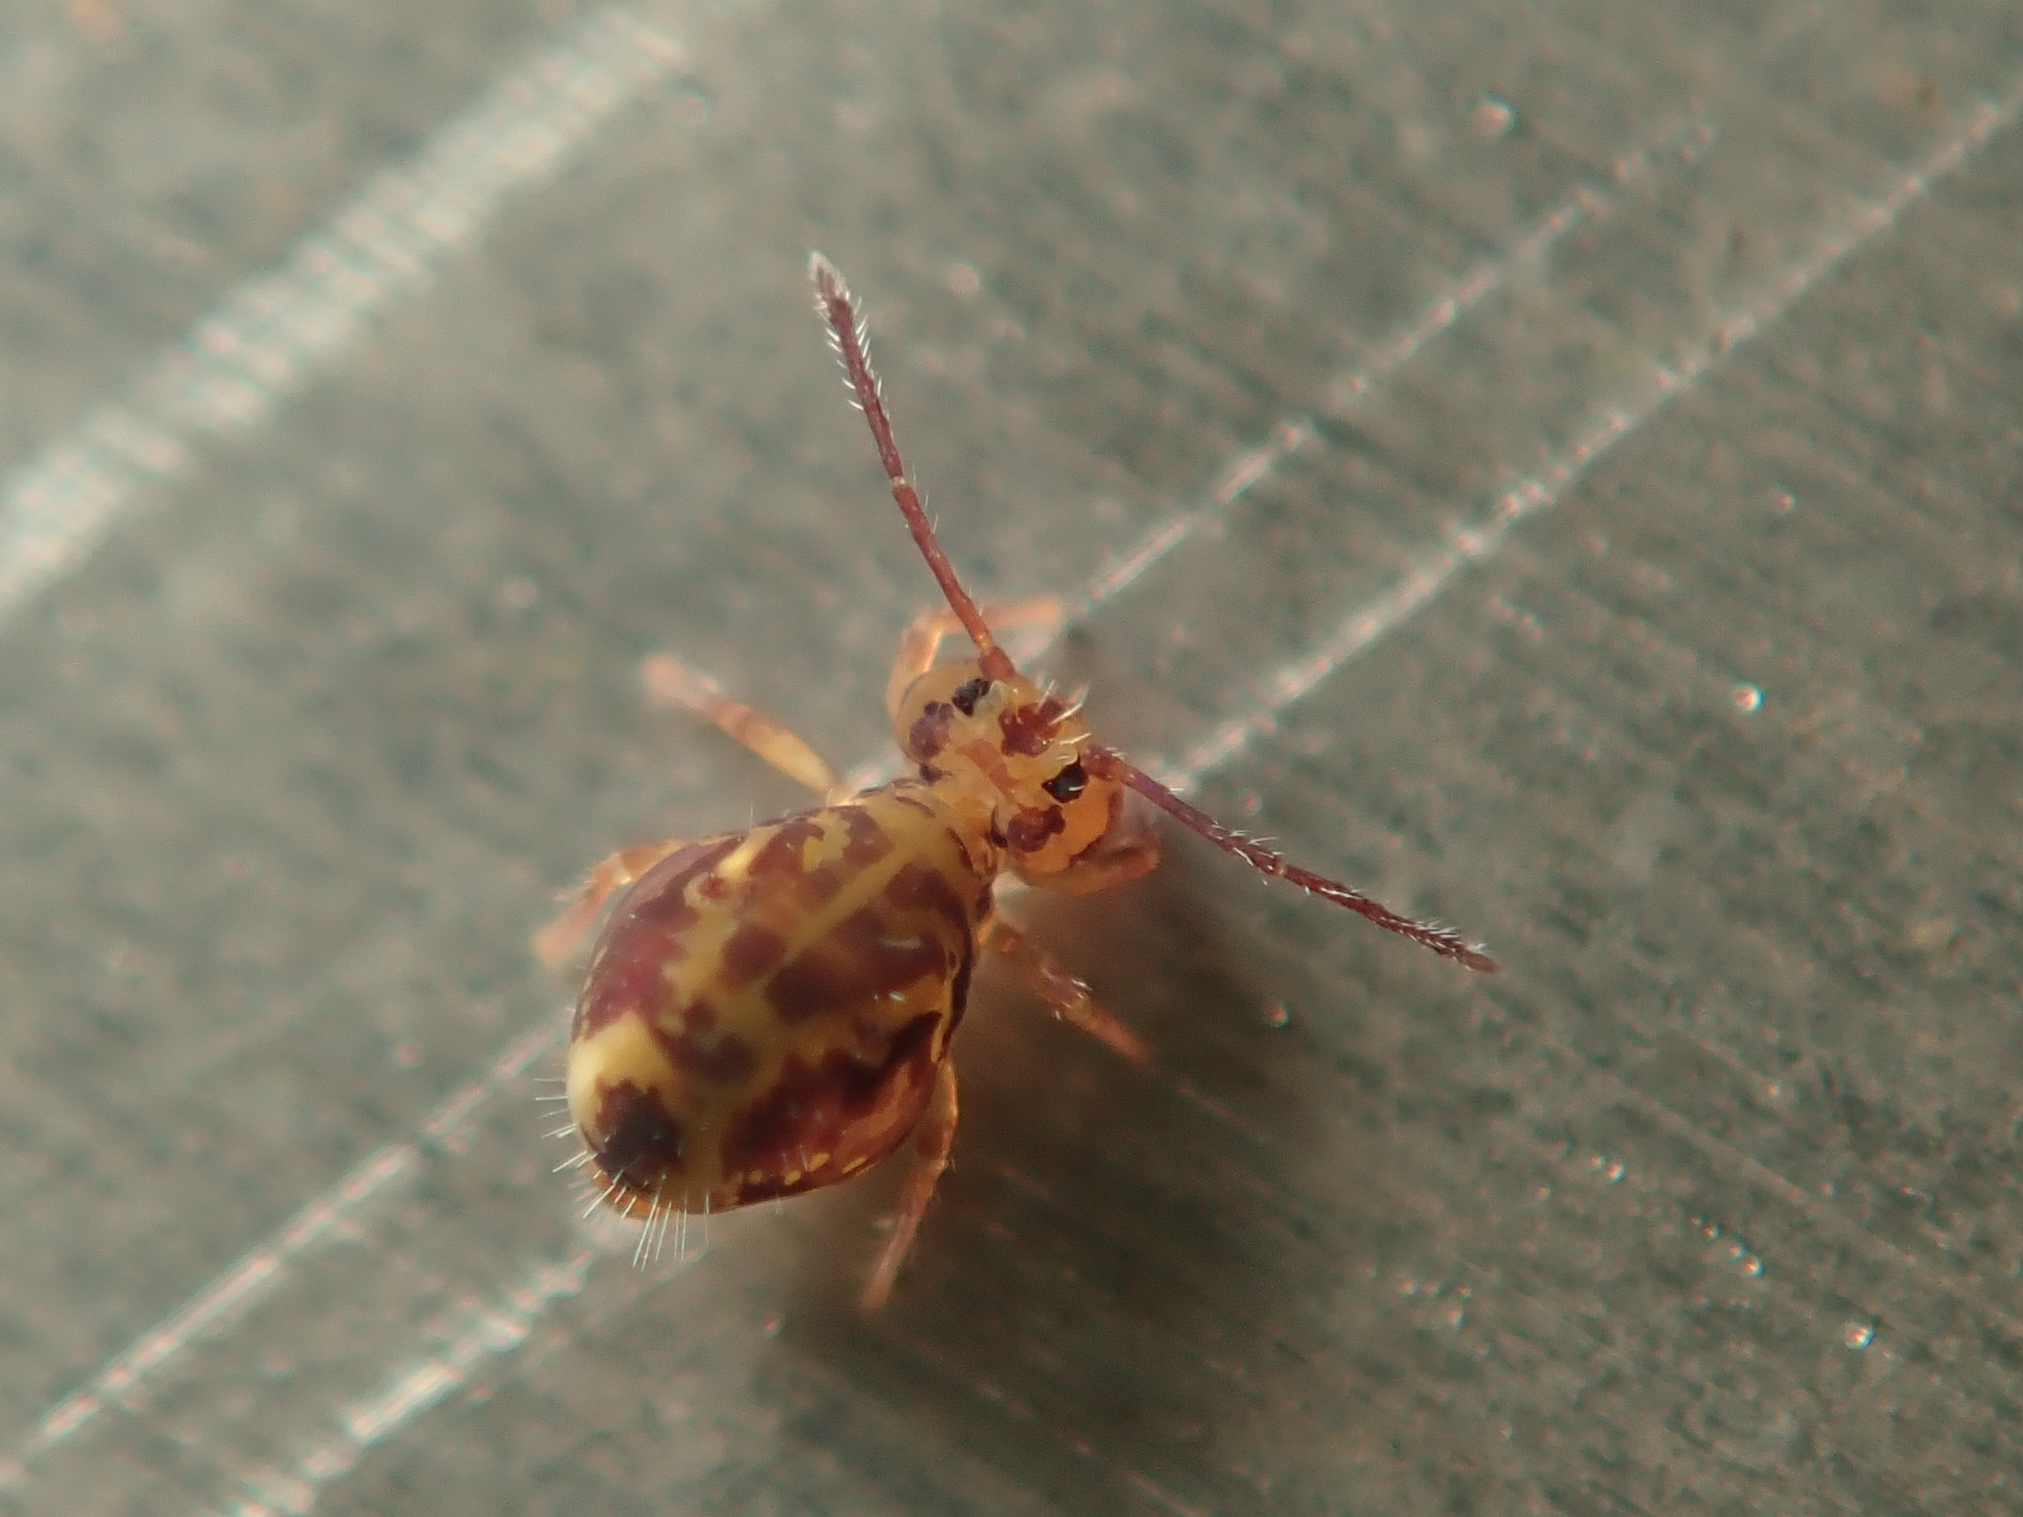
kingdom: Animalia
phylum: Arthropoda
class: Collembola
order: Symphypleona
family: Dicyrtomidae
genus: Dicyrtomina
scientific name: Dicyrtomina ornata
